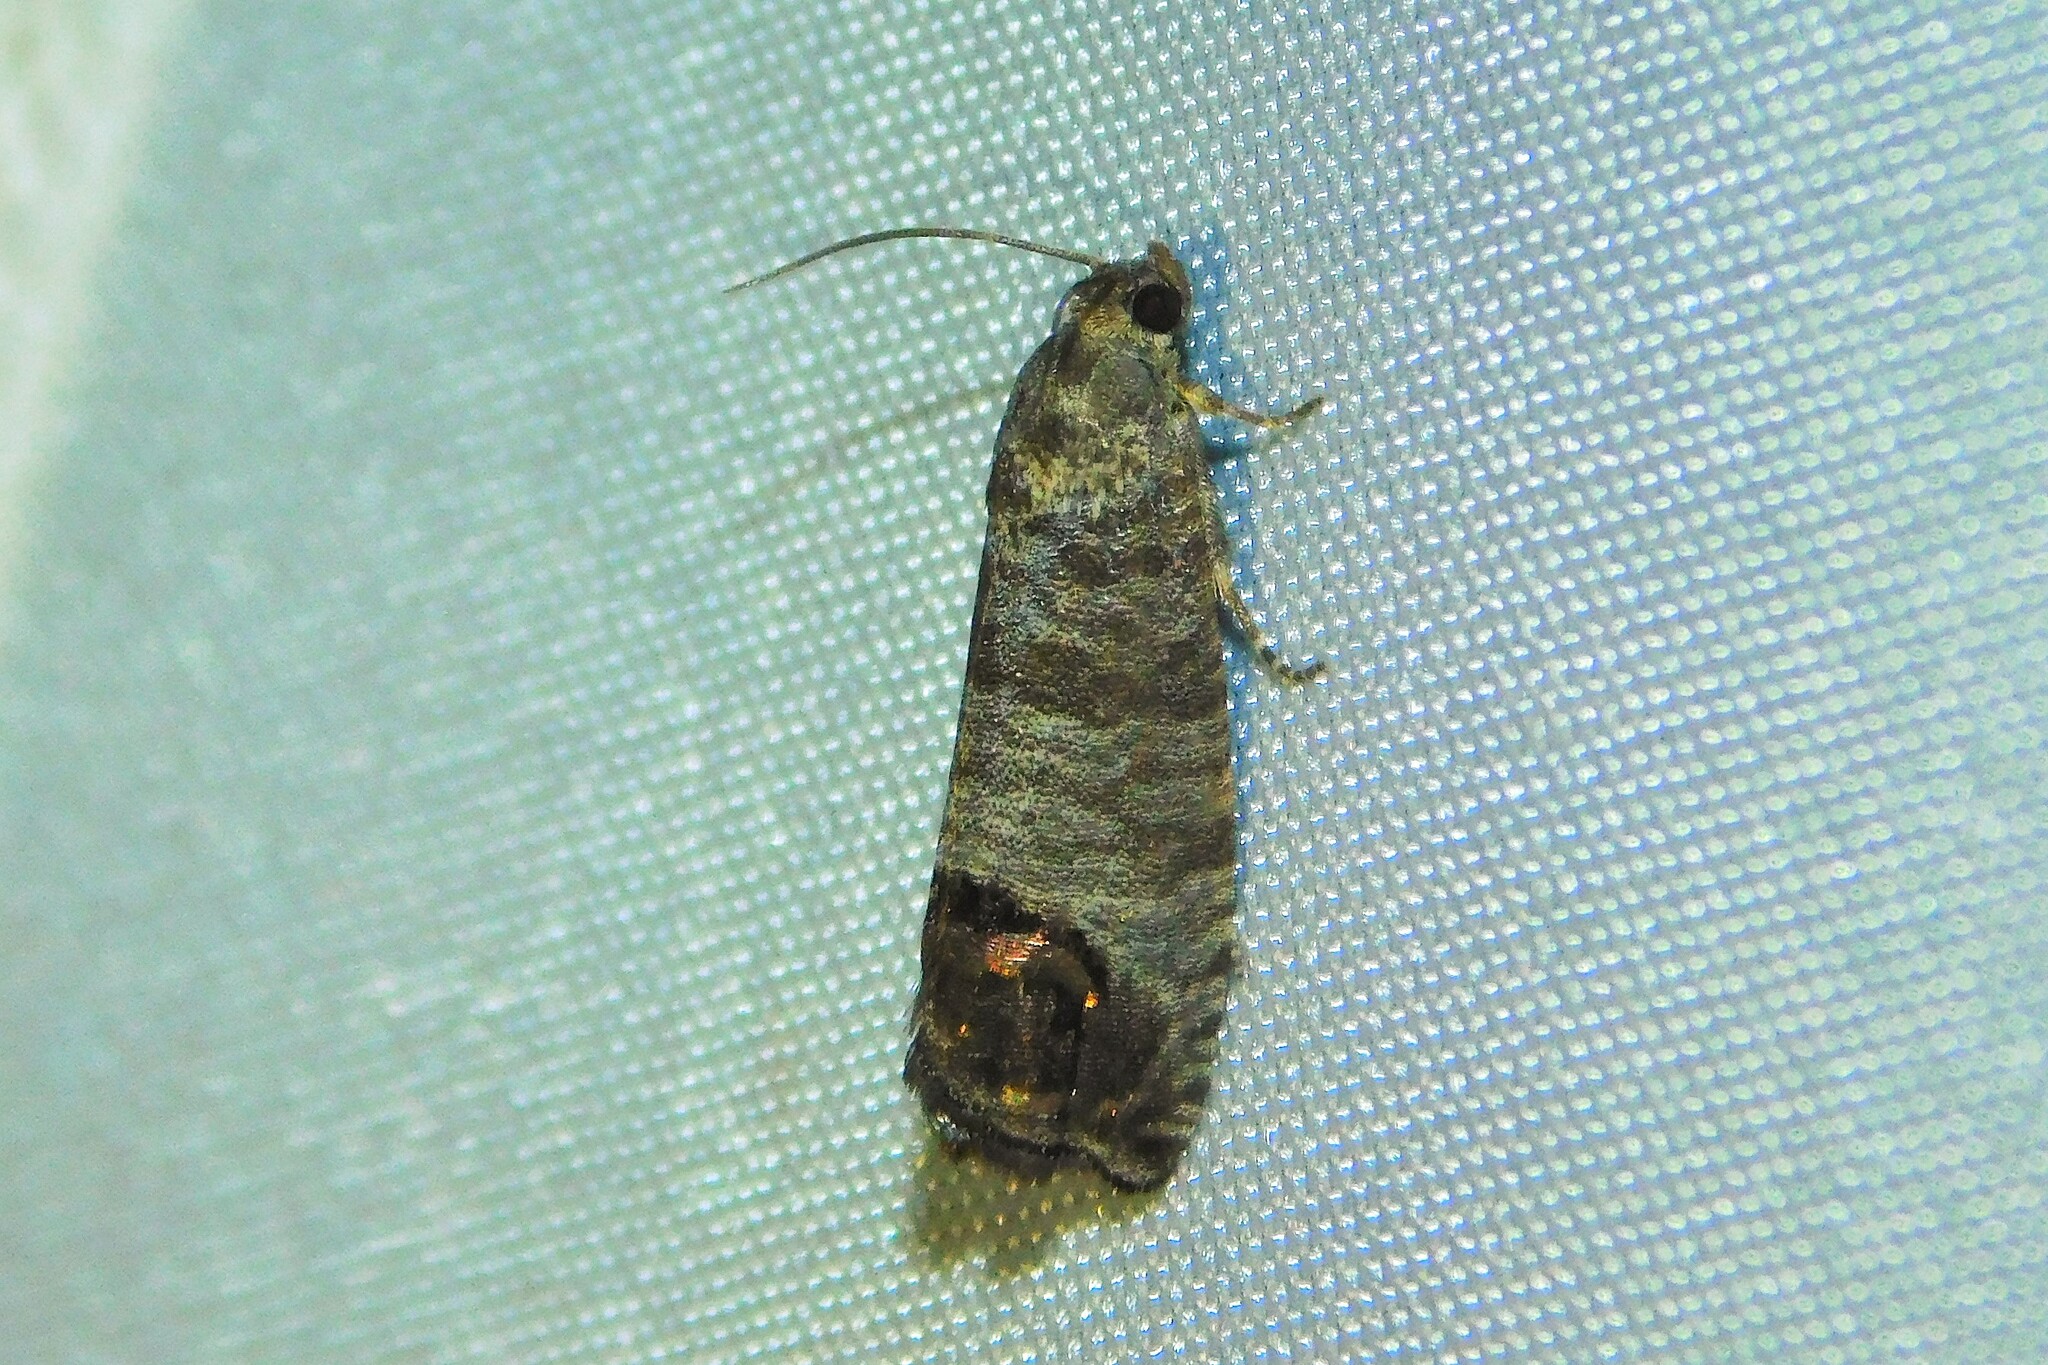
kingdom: Animalia
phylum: Arthropoda
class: Insecta
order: Lepidoptera
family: Tortricidae
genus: Cydia
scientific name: Cydia pomonella
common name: Codling moth
